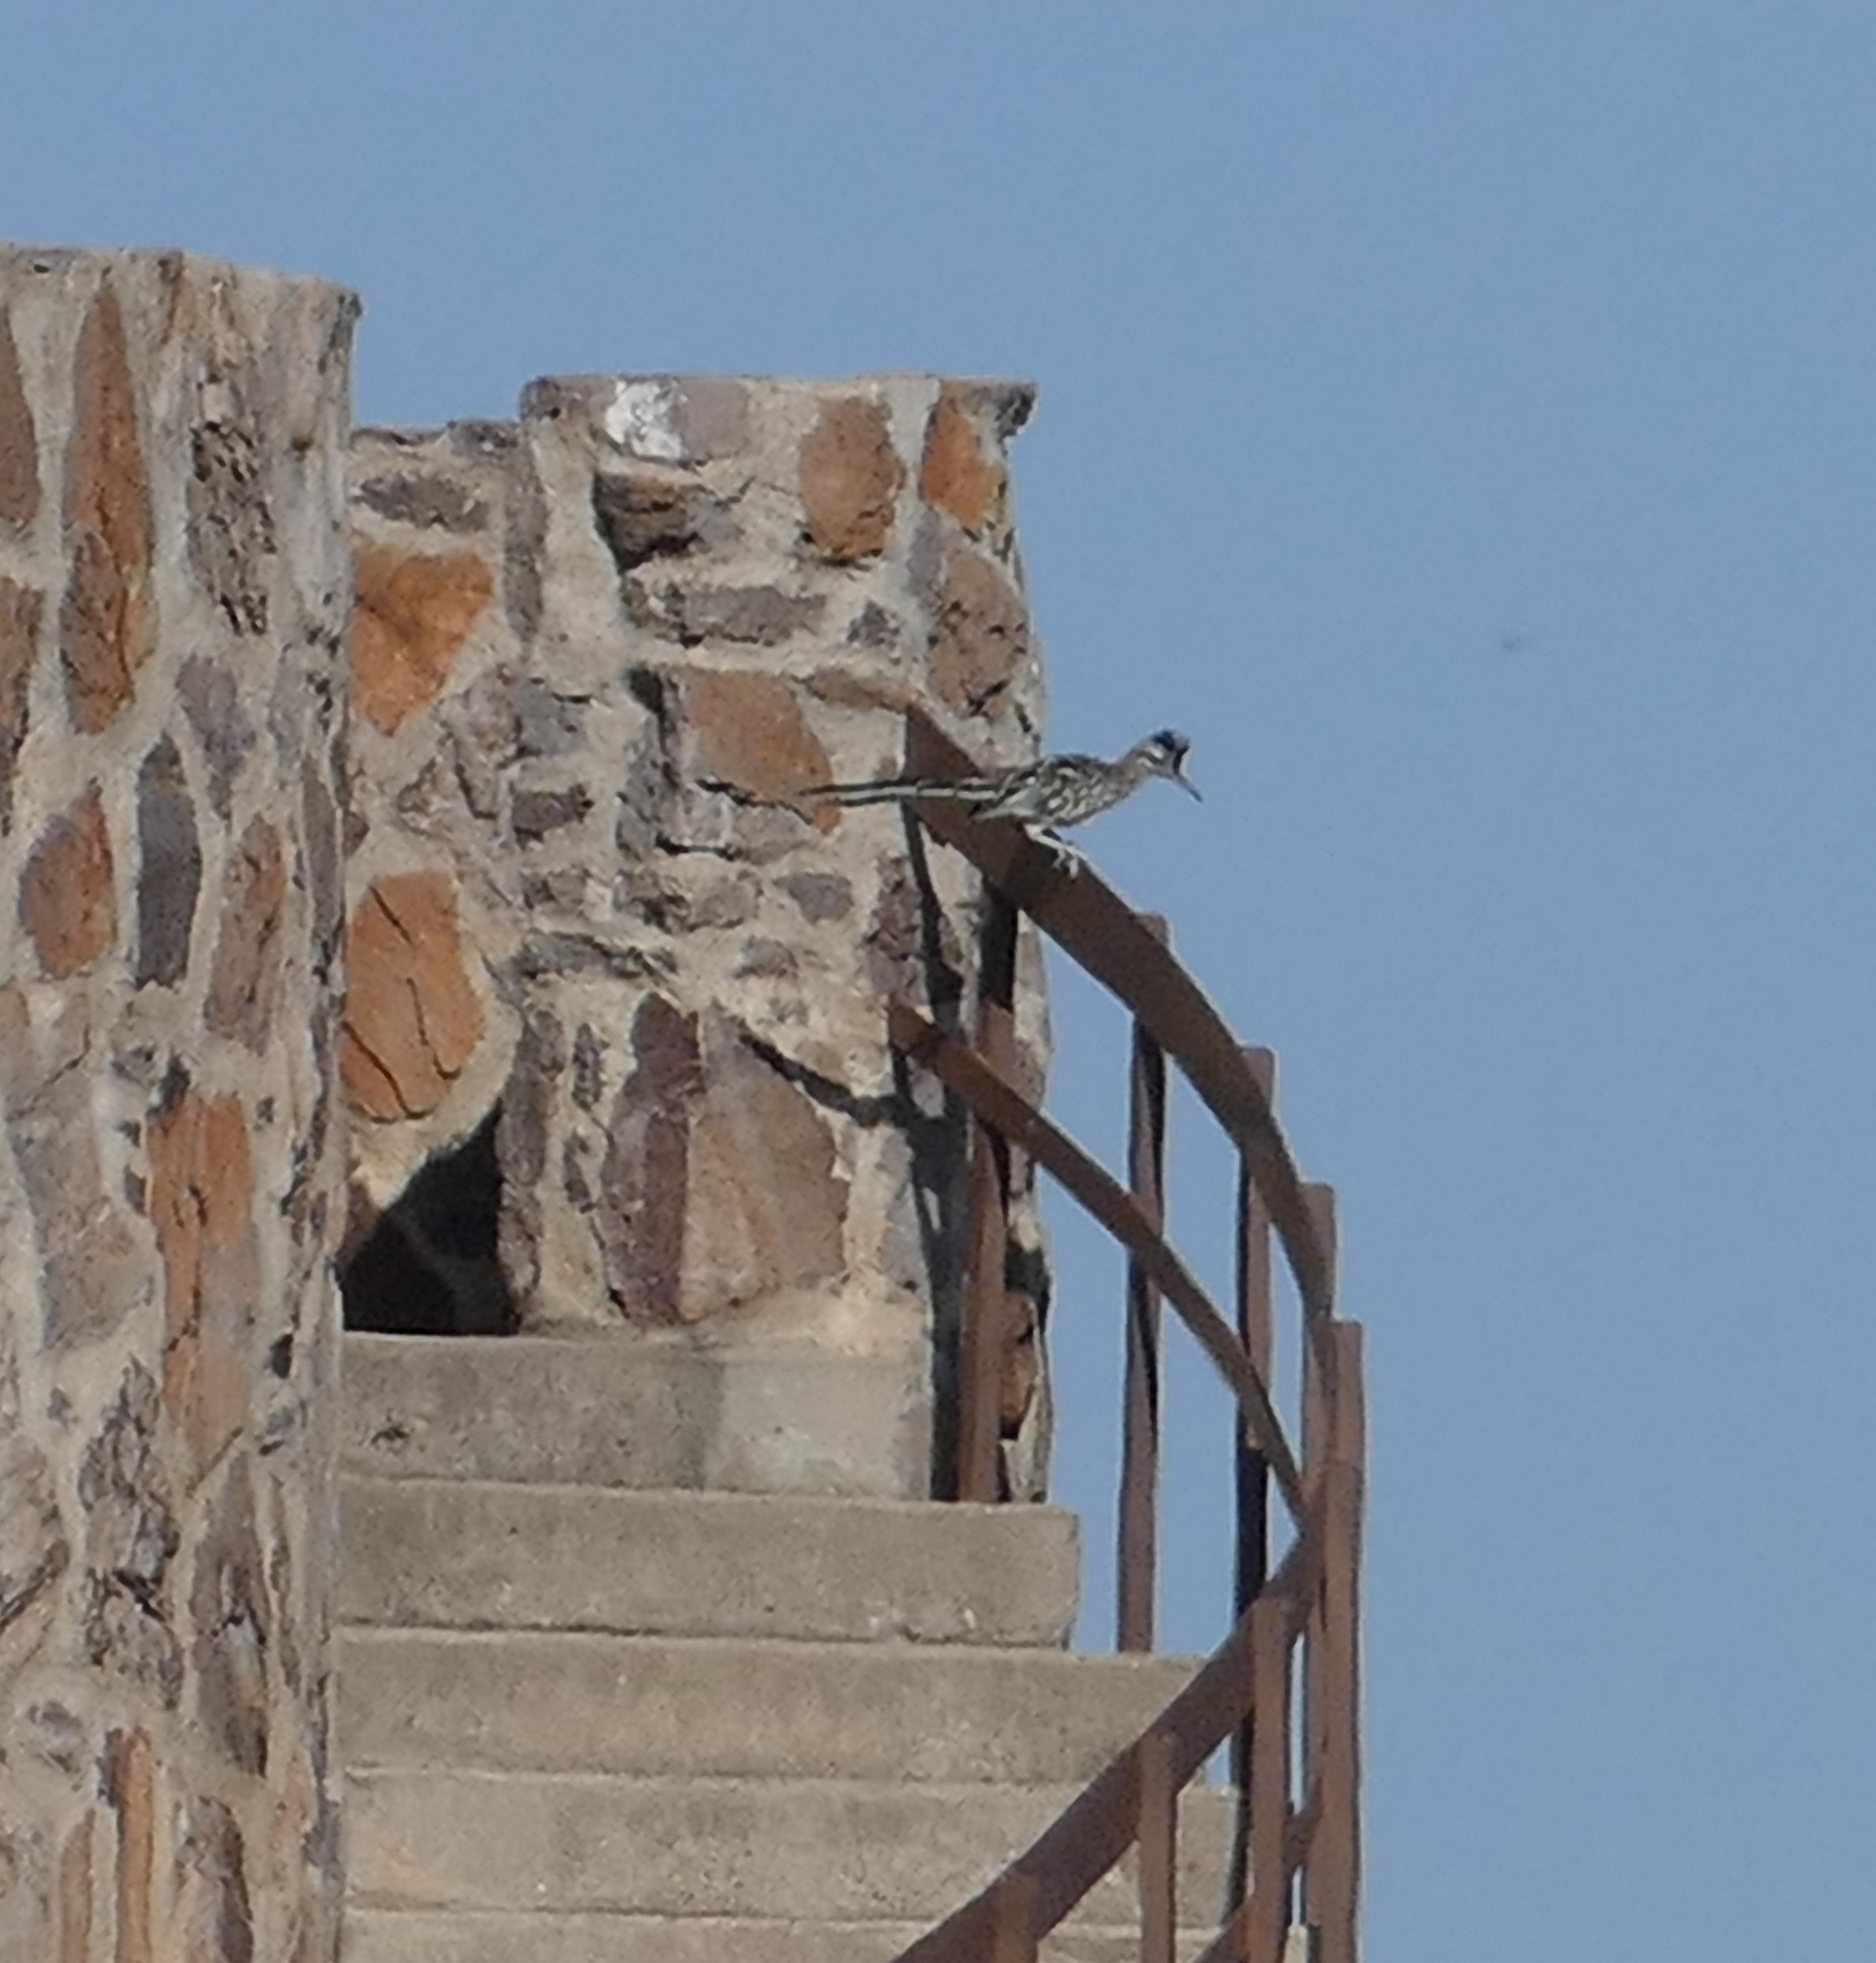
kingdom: Animalia
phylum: Chordata
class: Aves
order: Cuculiformes
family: Cuculidae
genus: Geococcyx
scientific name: Geococcyx californianus
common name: Greater roadrunner
